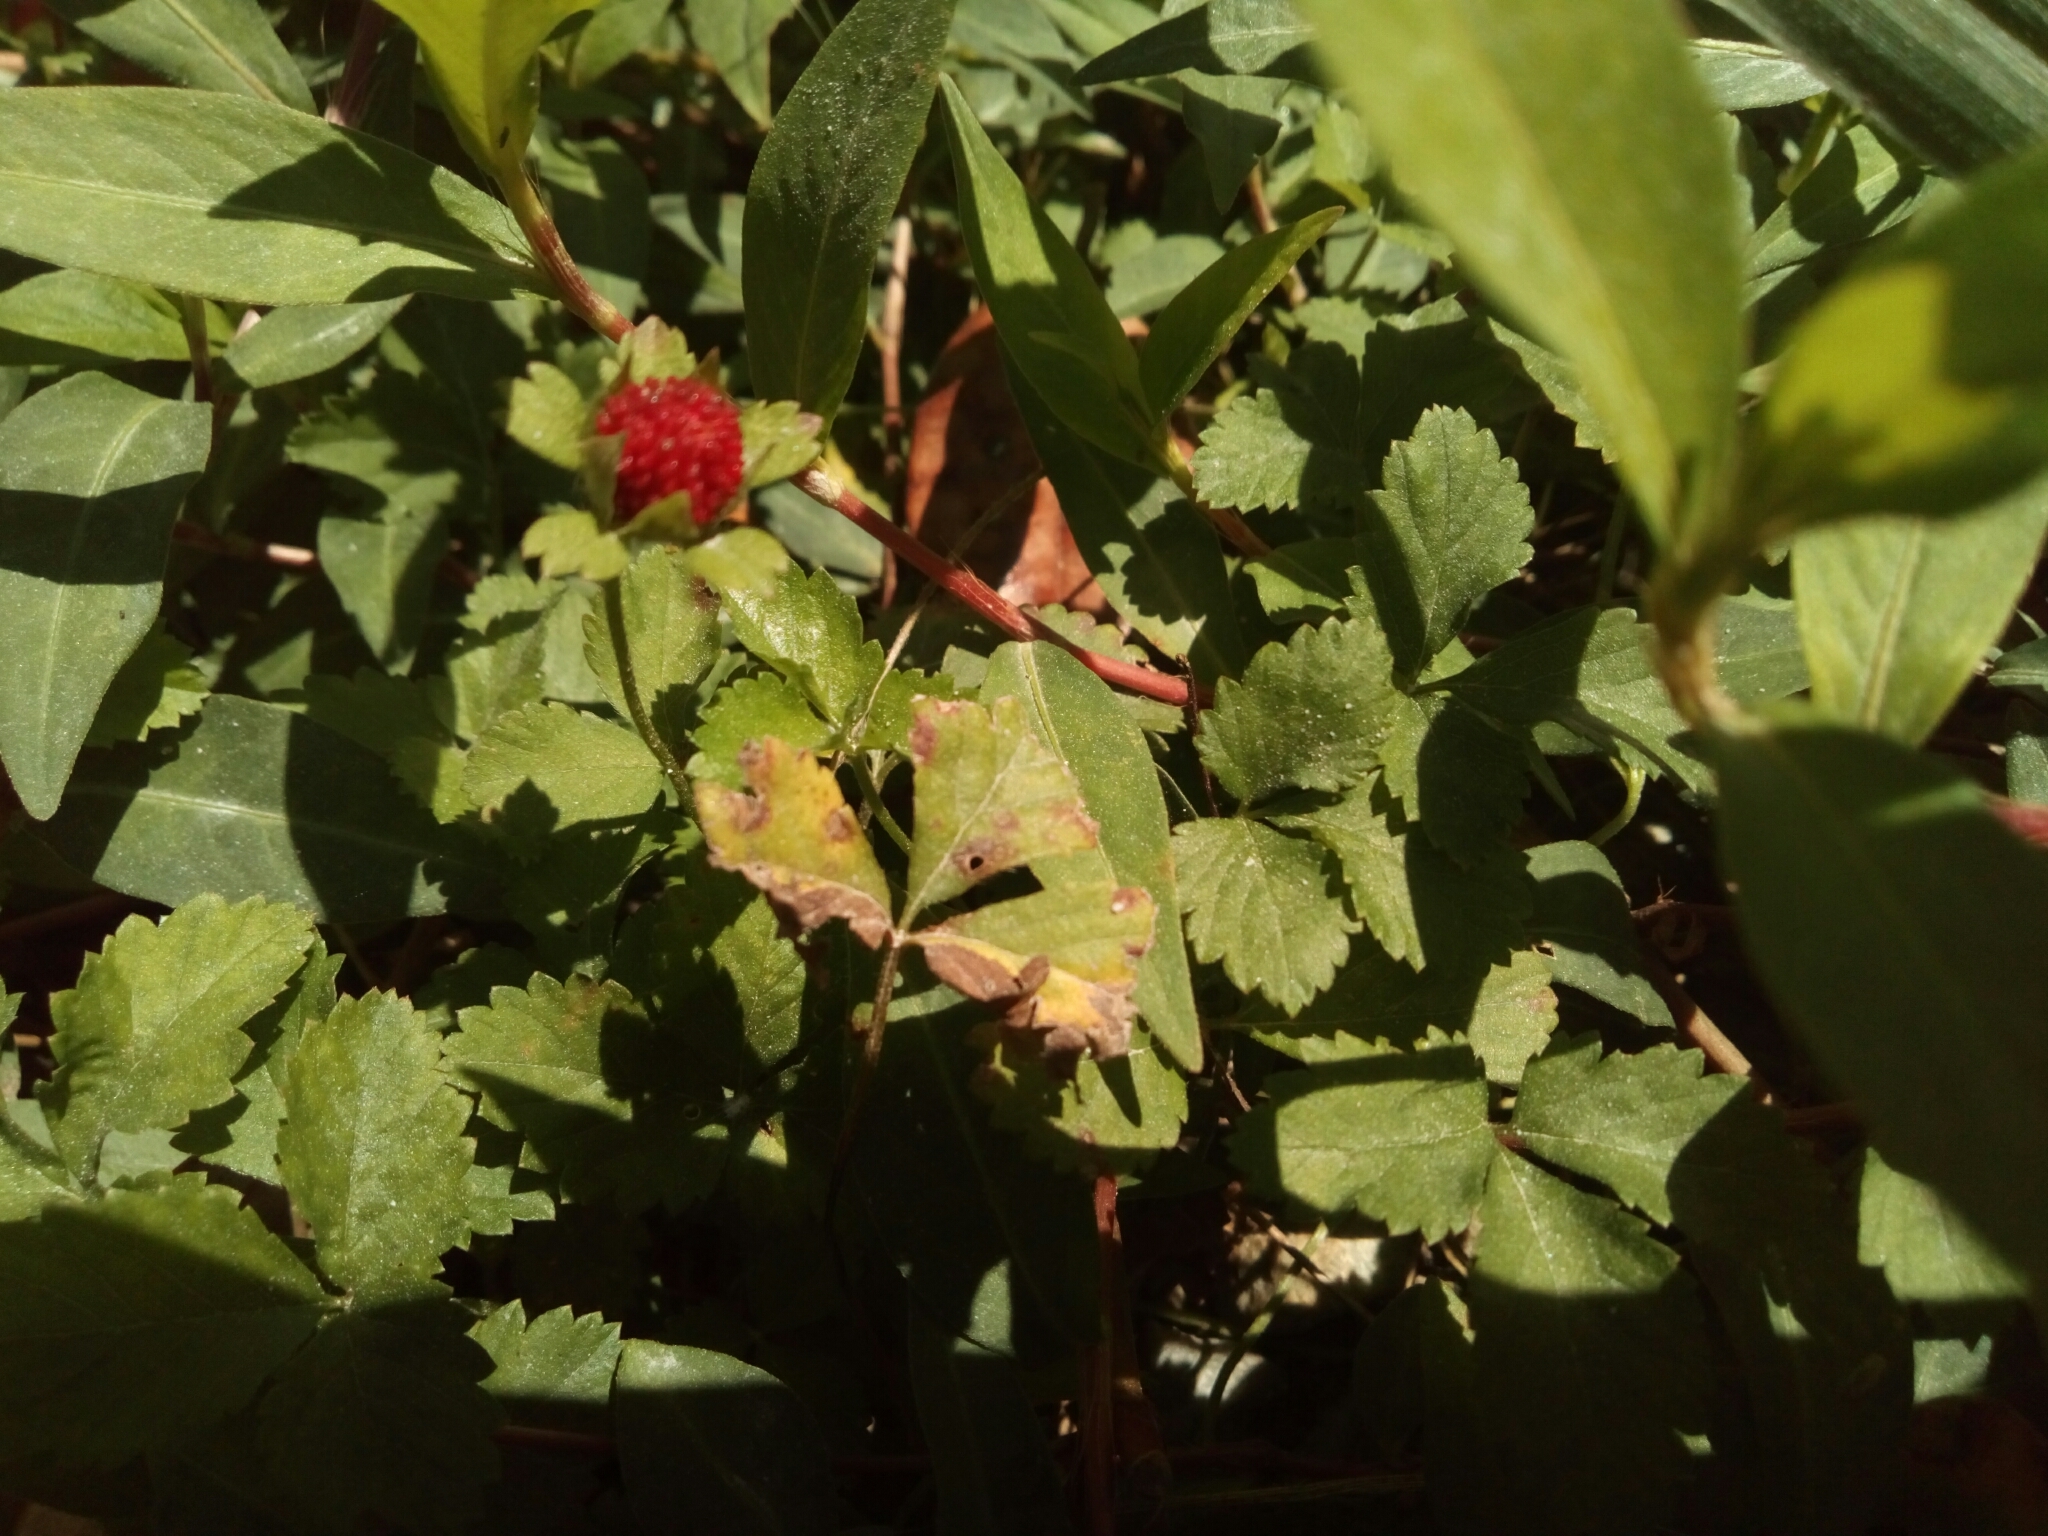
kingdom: Plantae
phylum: Tracheophyta
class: Magnoliopsida
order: Rosales
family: Rosaceae
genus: Potentilla
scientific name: Potentilla indica
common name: Yellow-flowered strawberry
